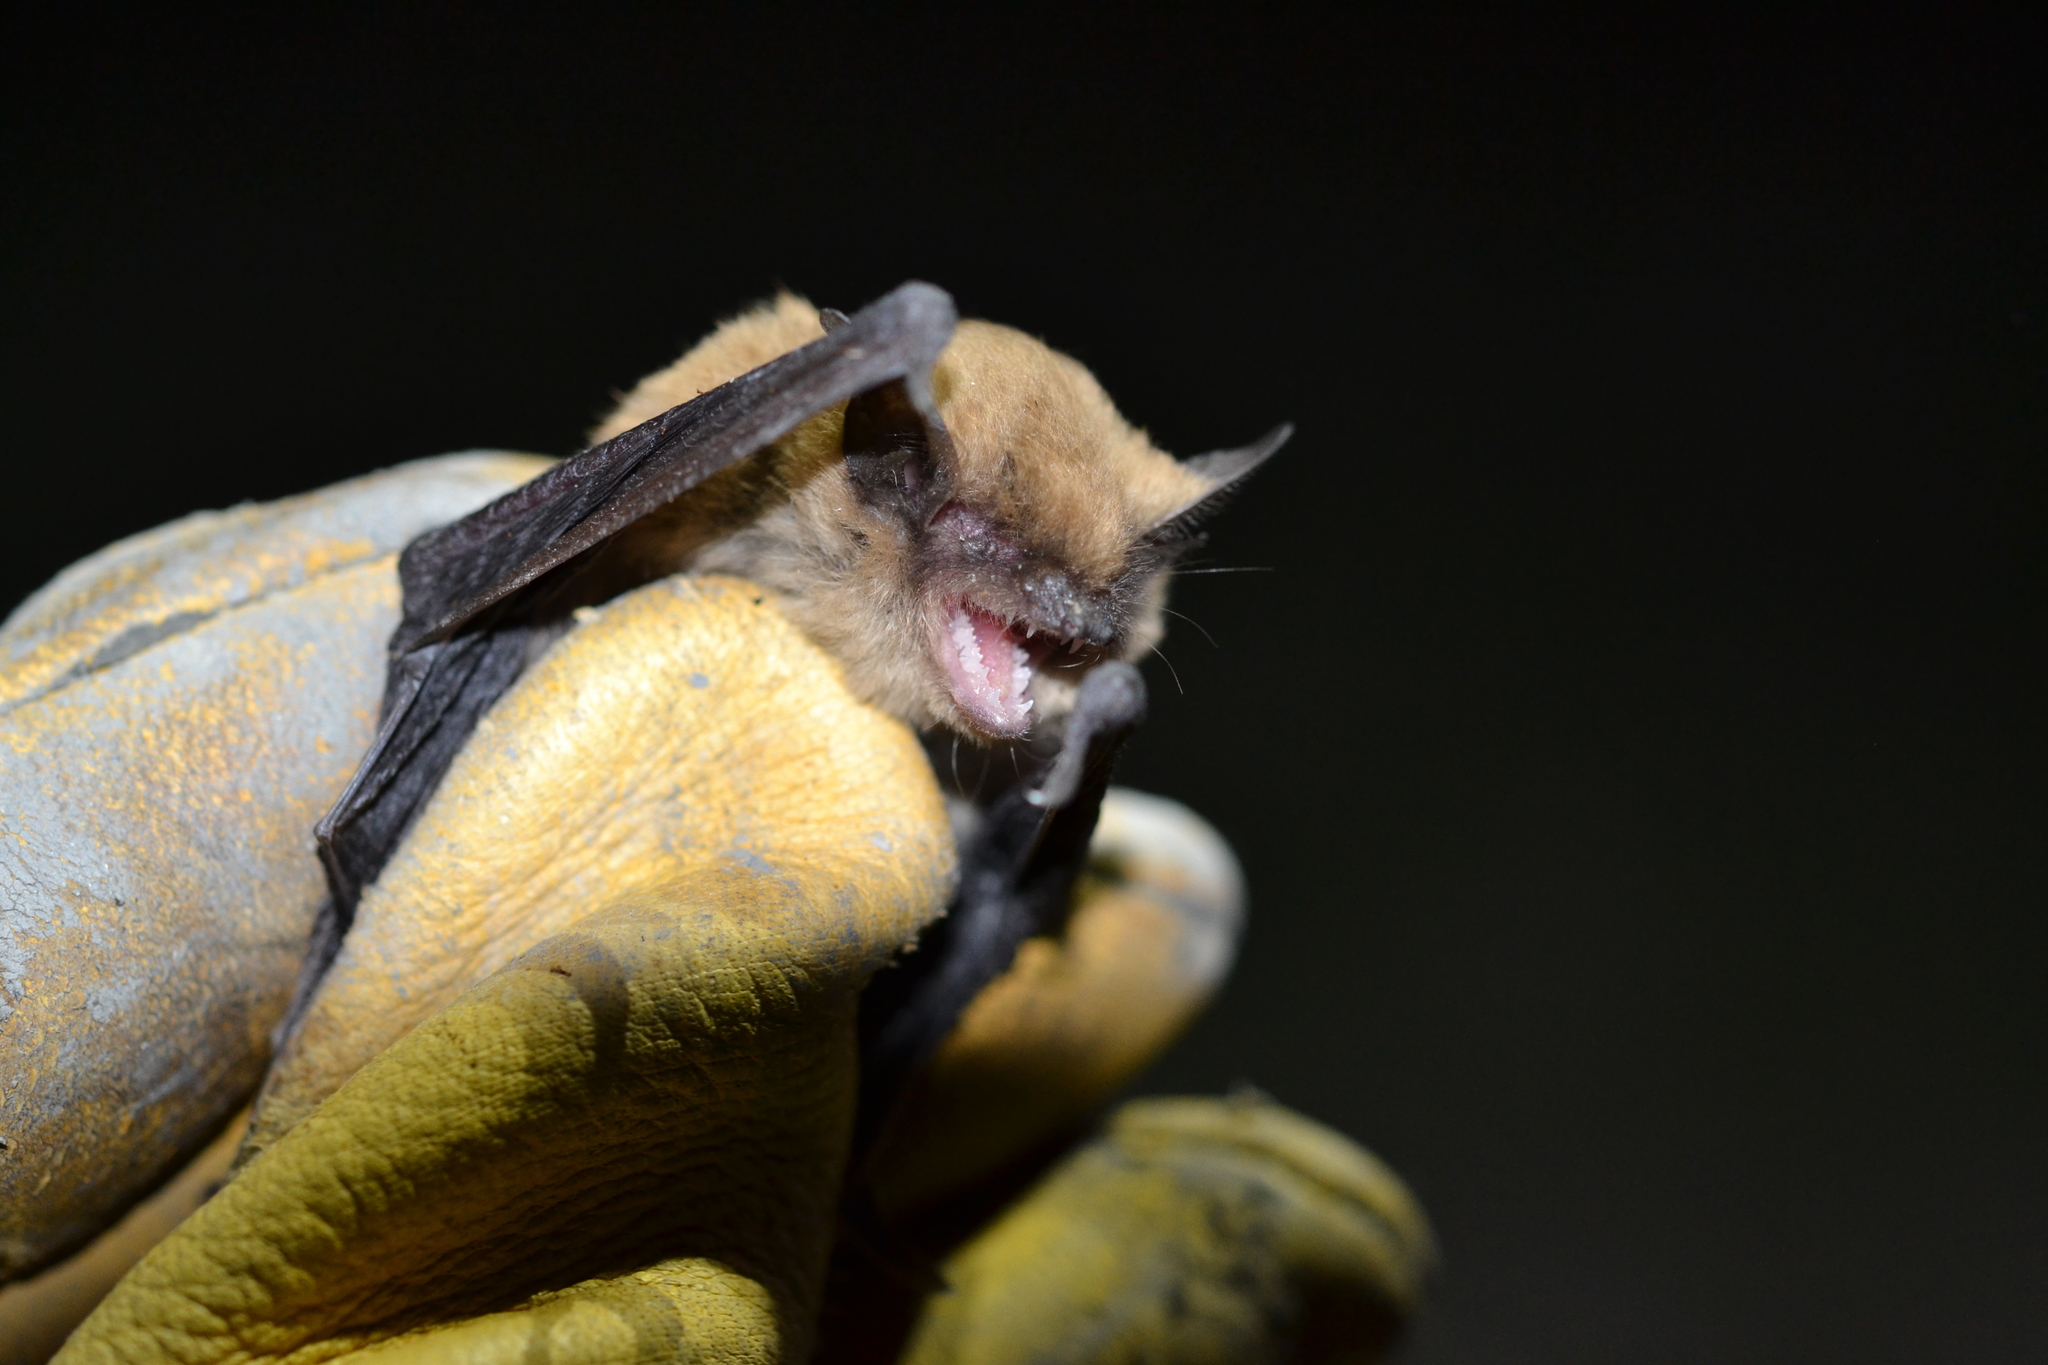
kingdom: Animalia
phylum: Chordata
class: Mammalia
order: Chiroptera
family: Vespertilionidae
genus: Parastrellus
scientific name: Parastrellus hesperus
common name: Canyon bat
